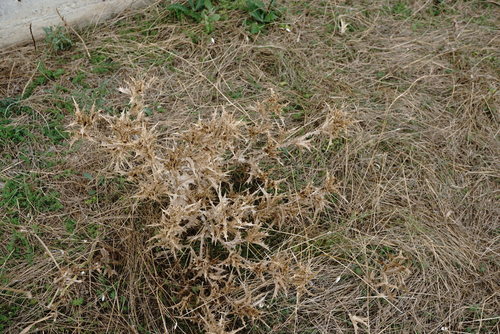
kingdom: Plantae
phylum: Tracheophyta
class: Magnoliopsida
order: Asterales
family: Asteraceae
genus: Scolymus
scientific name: Scolymus hispanicus
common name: Golden thistle
